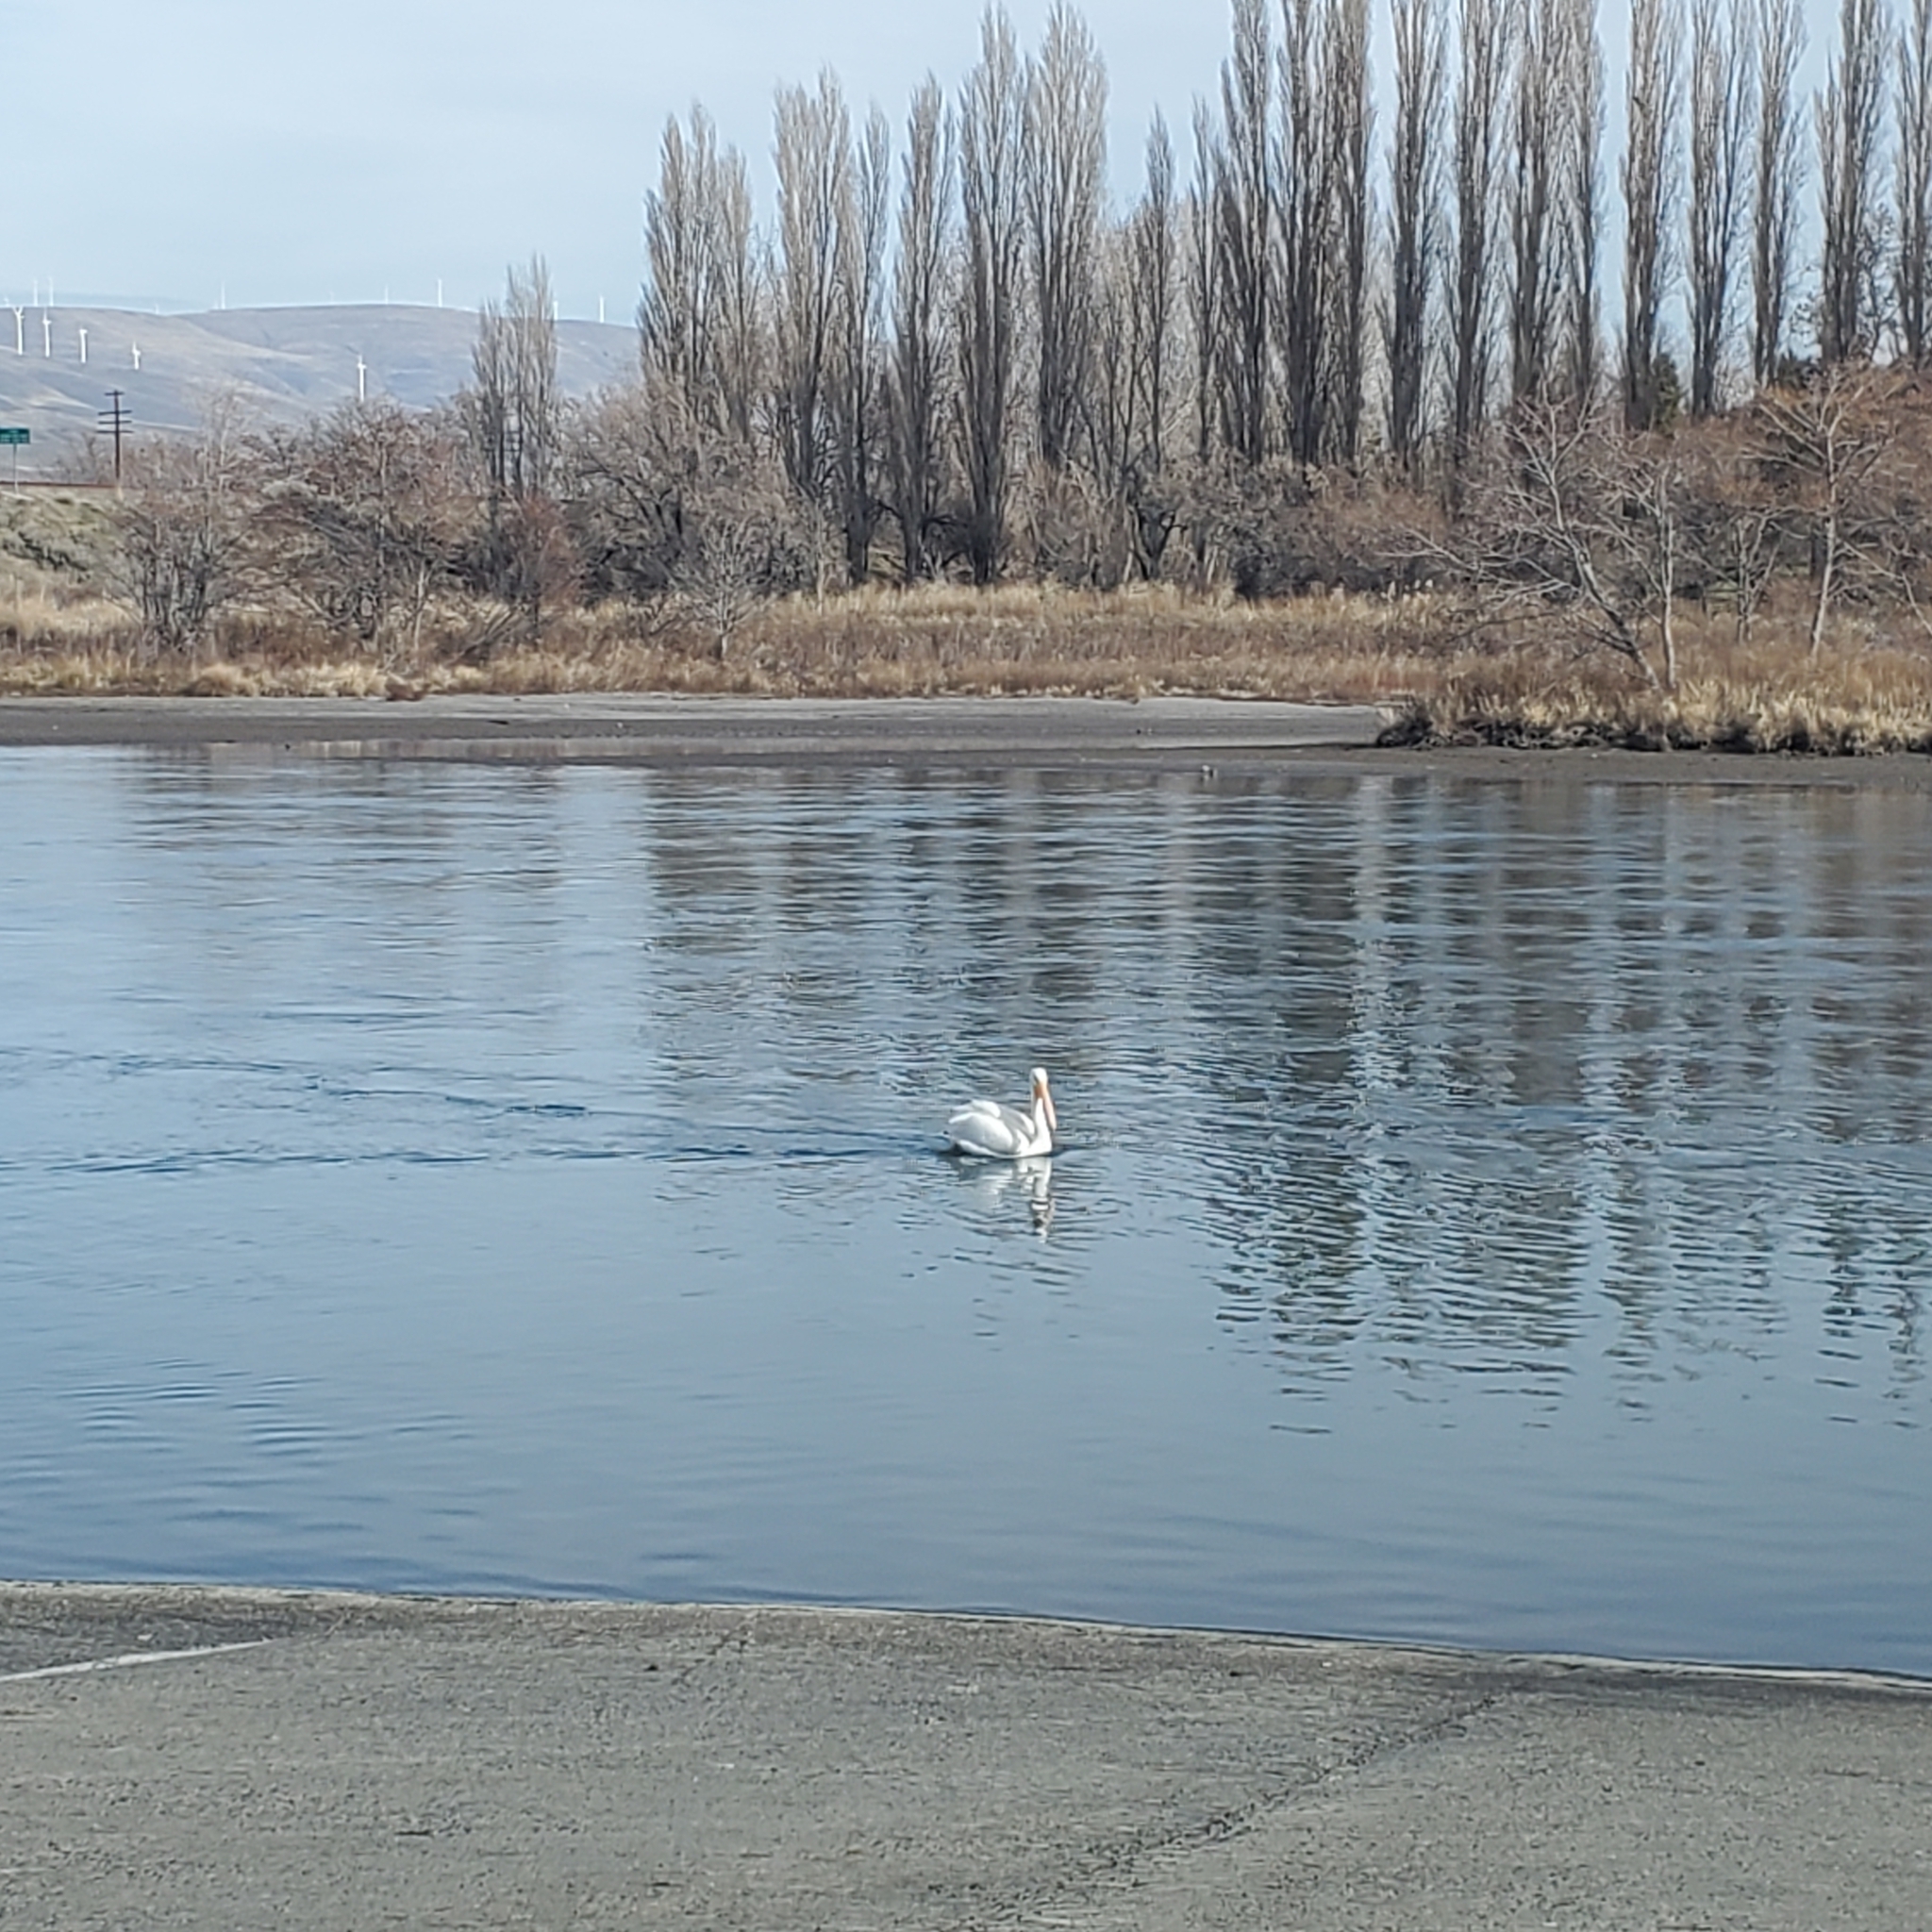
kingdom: Animalia
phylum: Chordata
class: Aves
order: Pelecaniformes
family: Pelecanidae
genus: Pelecanus
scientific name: Pelecanus erythrorhynchos
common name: American white pelican
